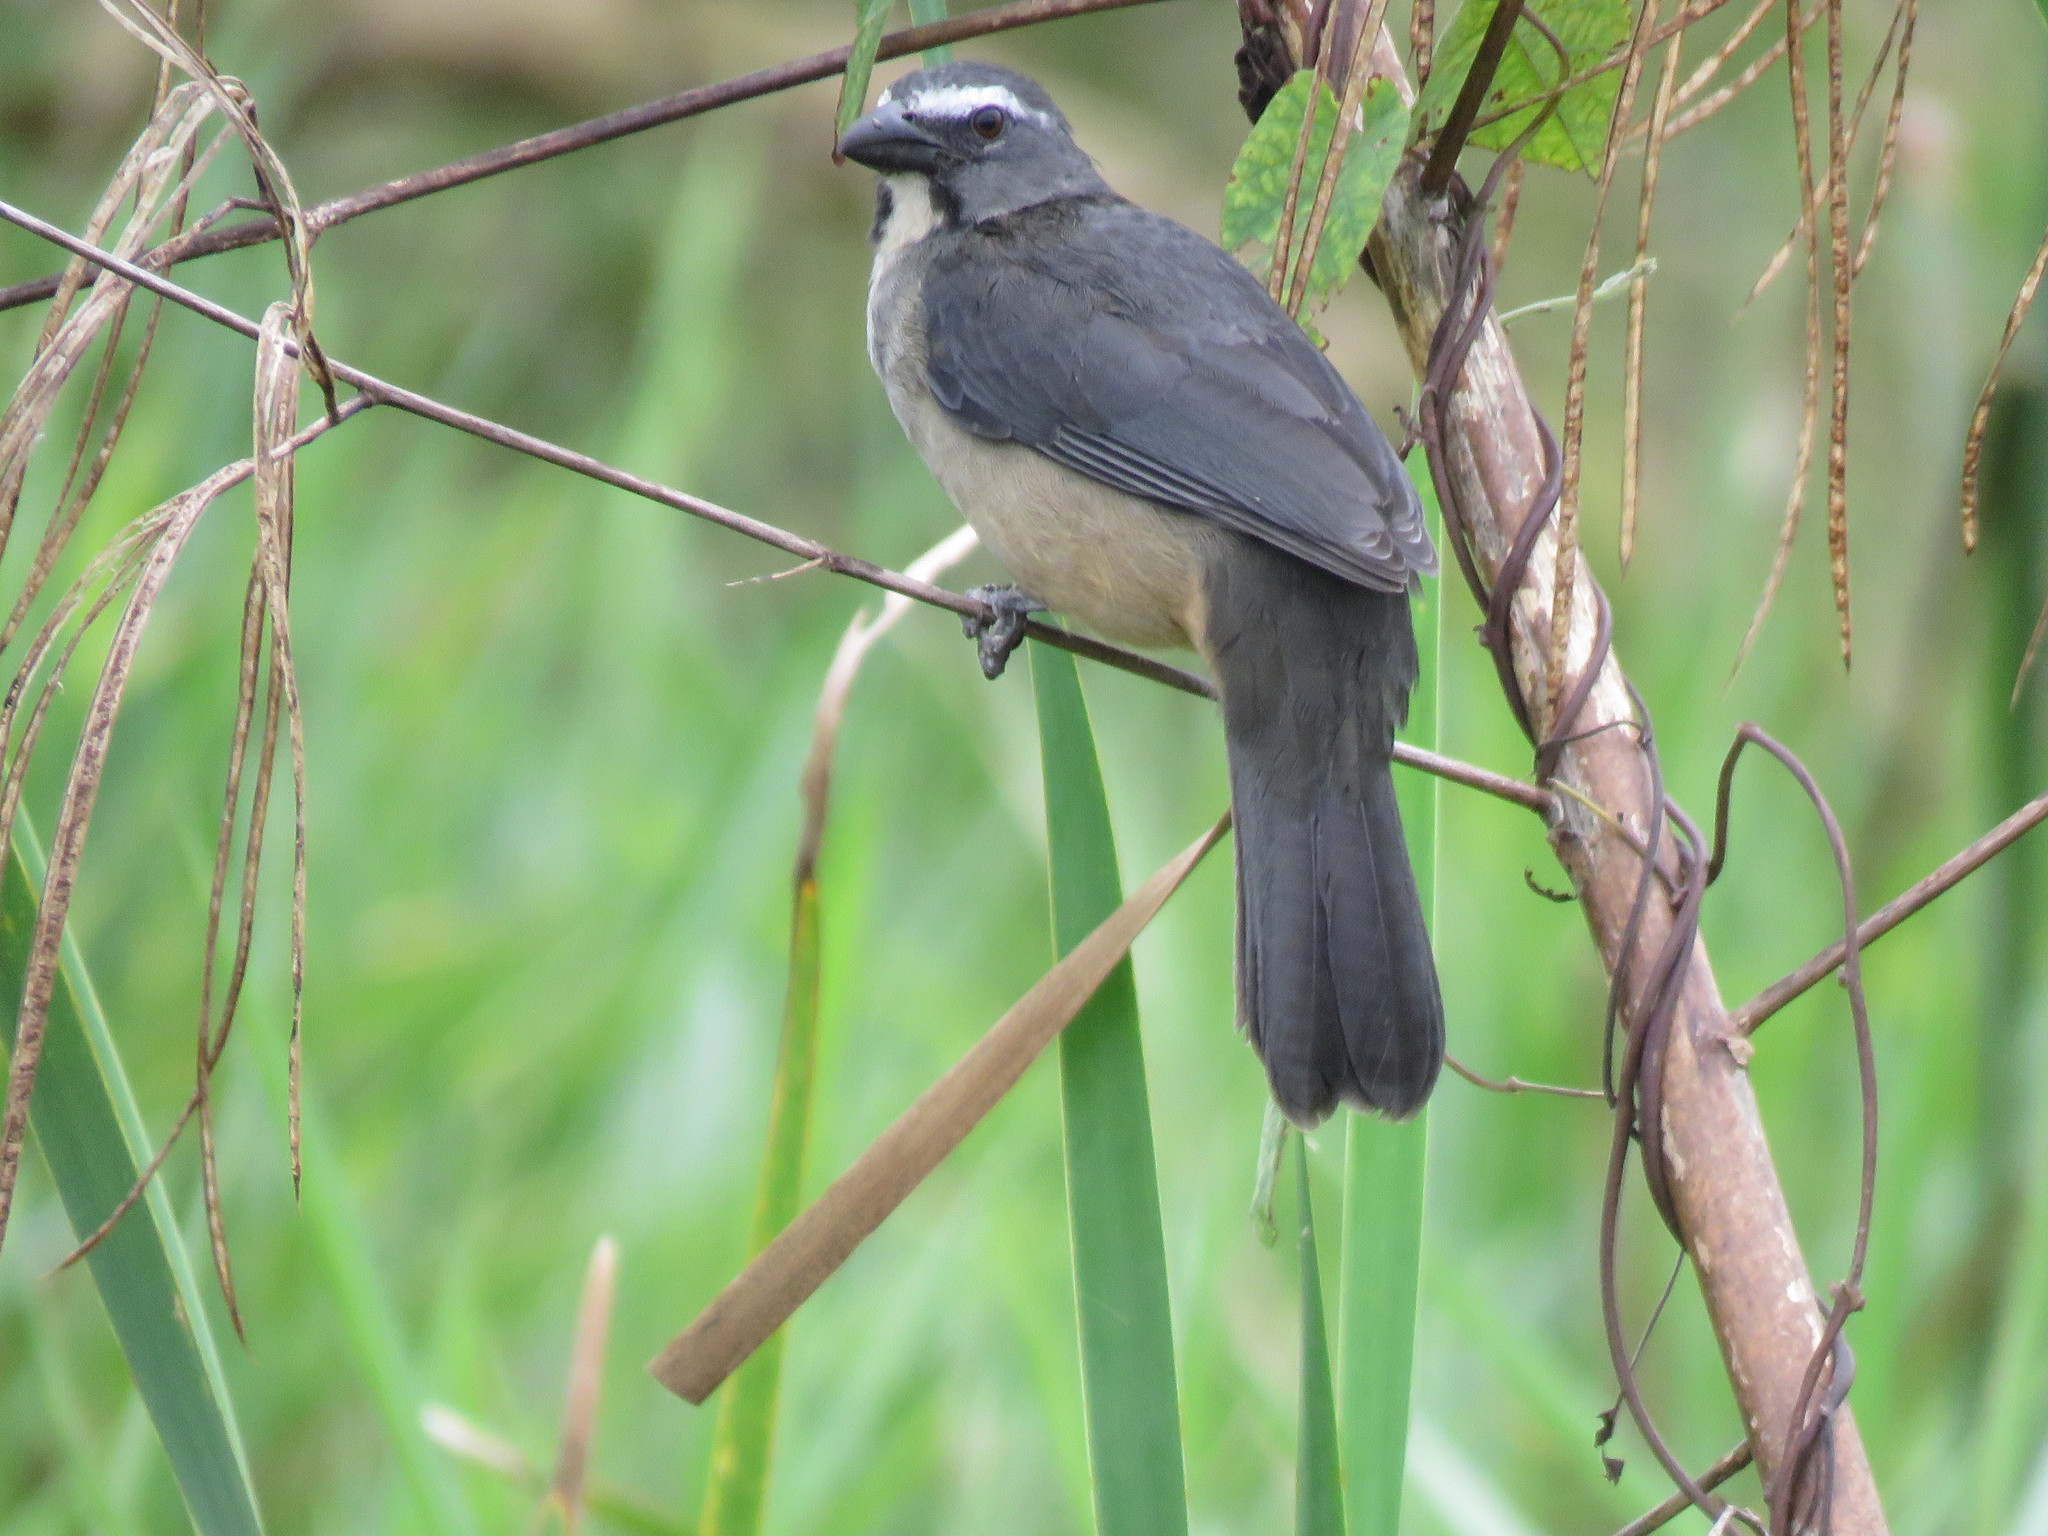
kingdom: Animalia
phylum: Chordata
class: Aves
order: Passeriformes
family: Thraupidae
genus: Saltator
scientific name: Saltator coerulescens
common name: Grayish saltator
